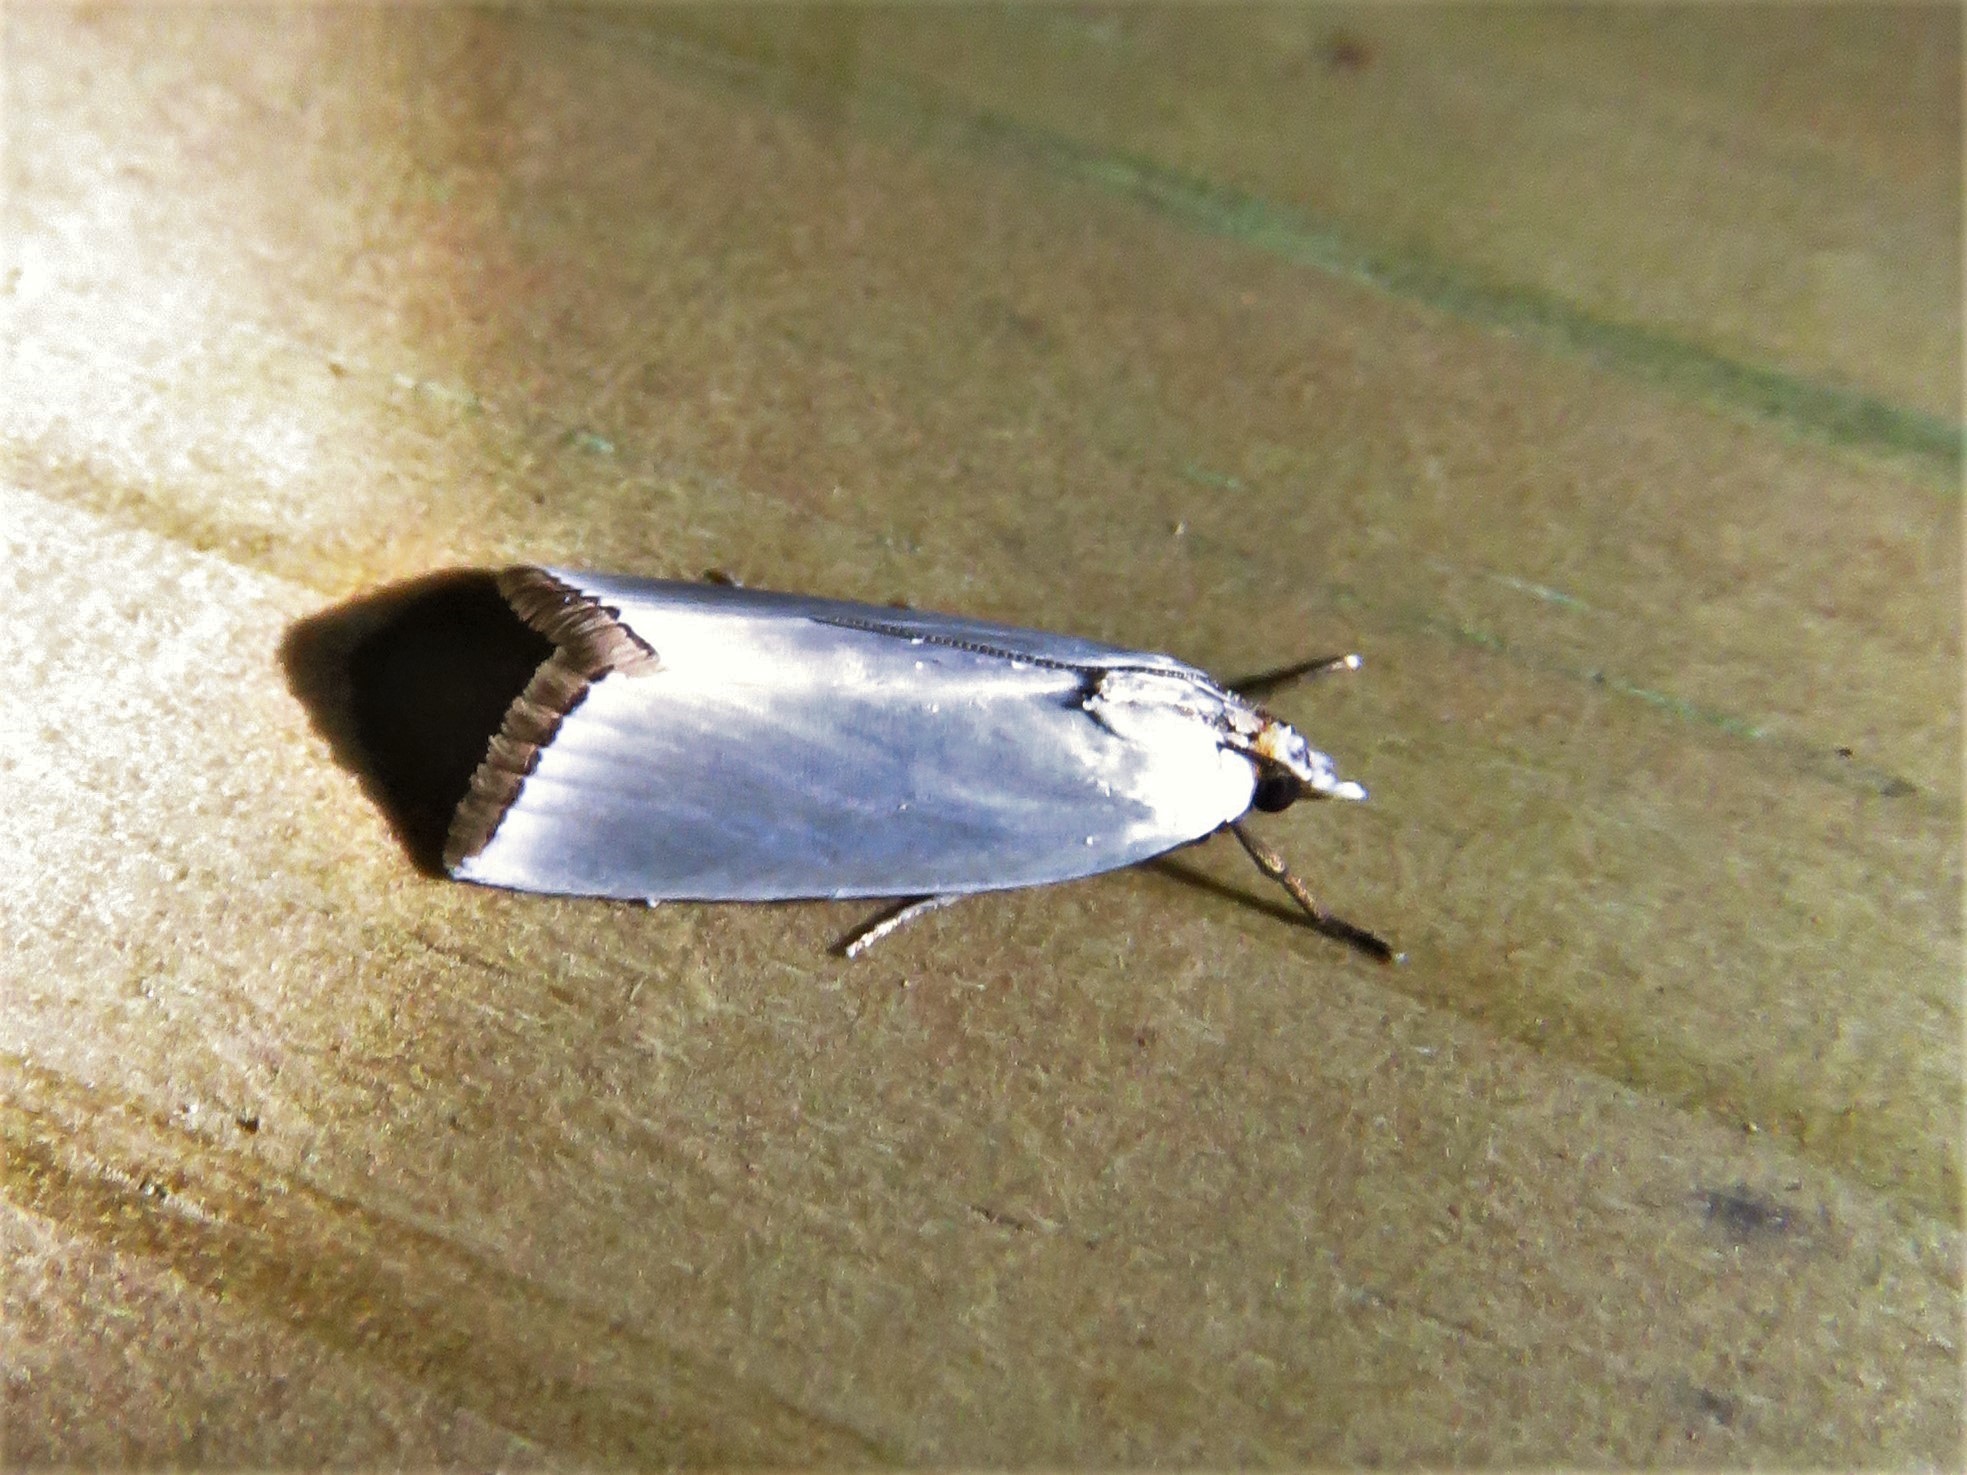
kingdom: Animalia
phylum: Arthropoda
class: Insecta
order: Lepidoptera
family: Crambidae
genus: Argyria
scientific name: Argyria nivalis
